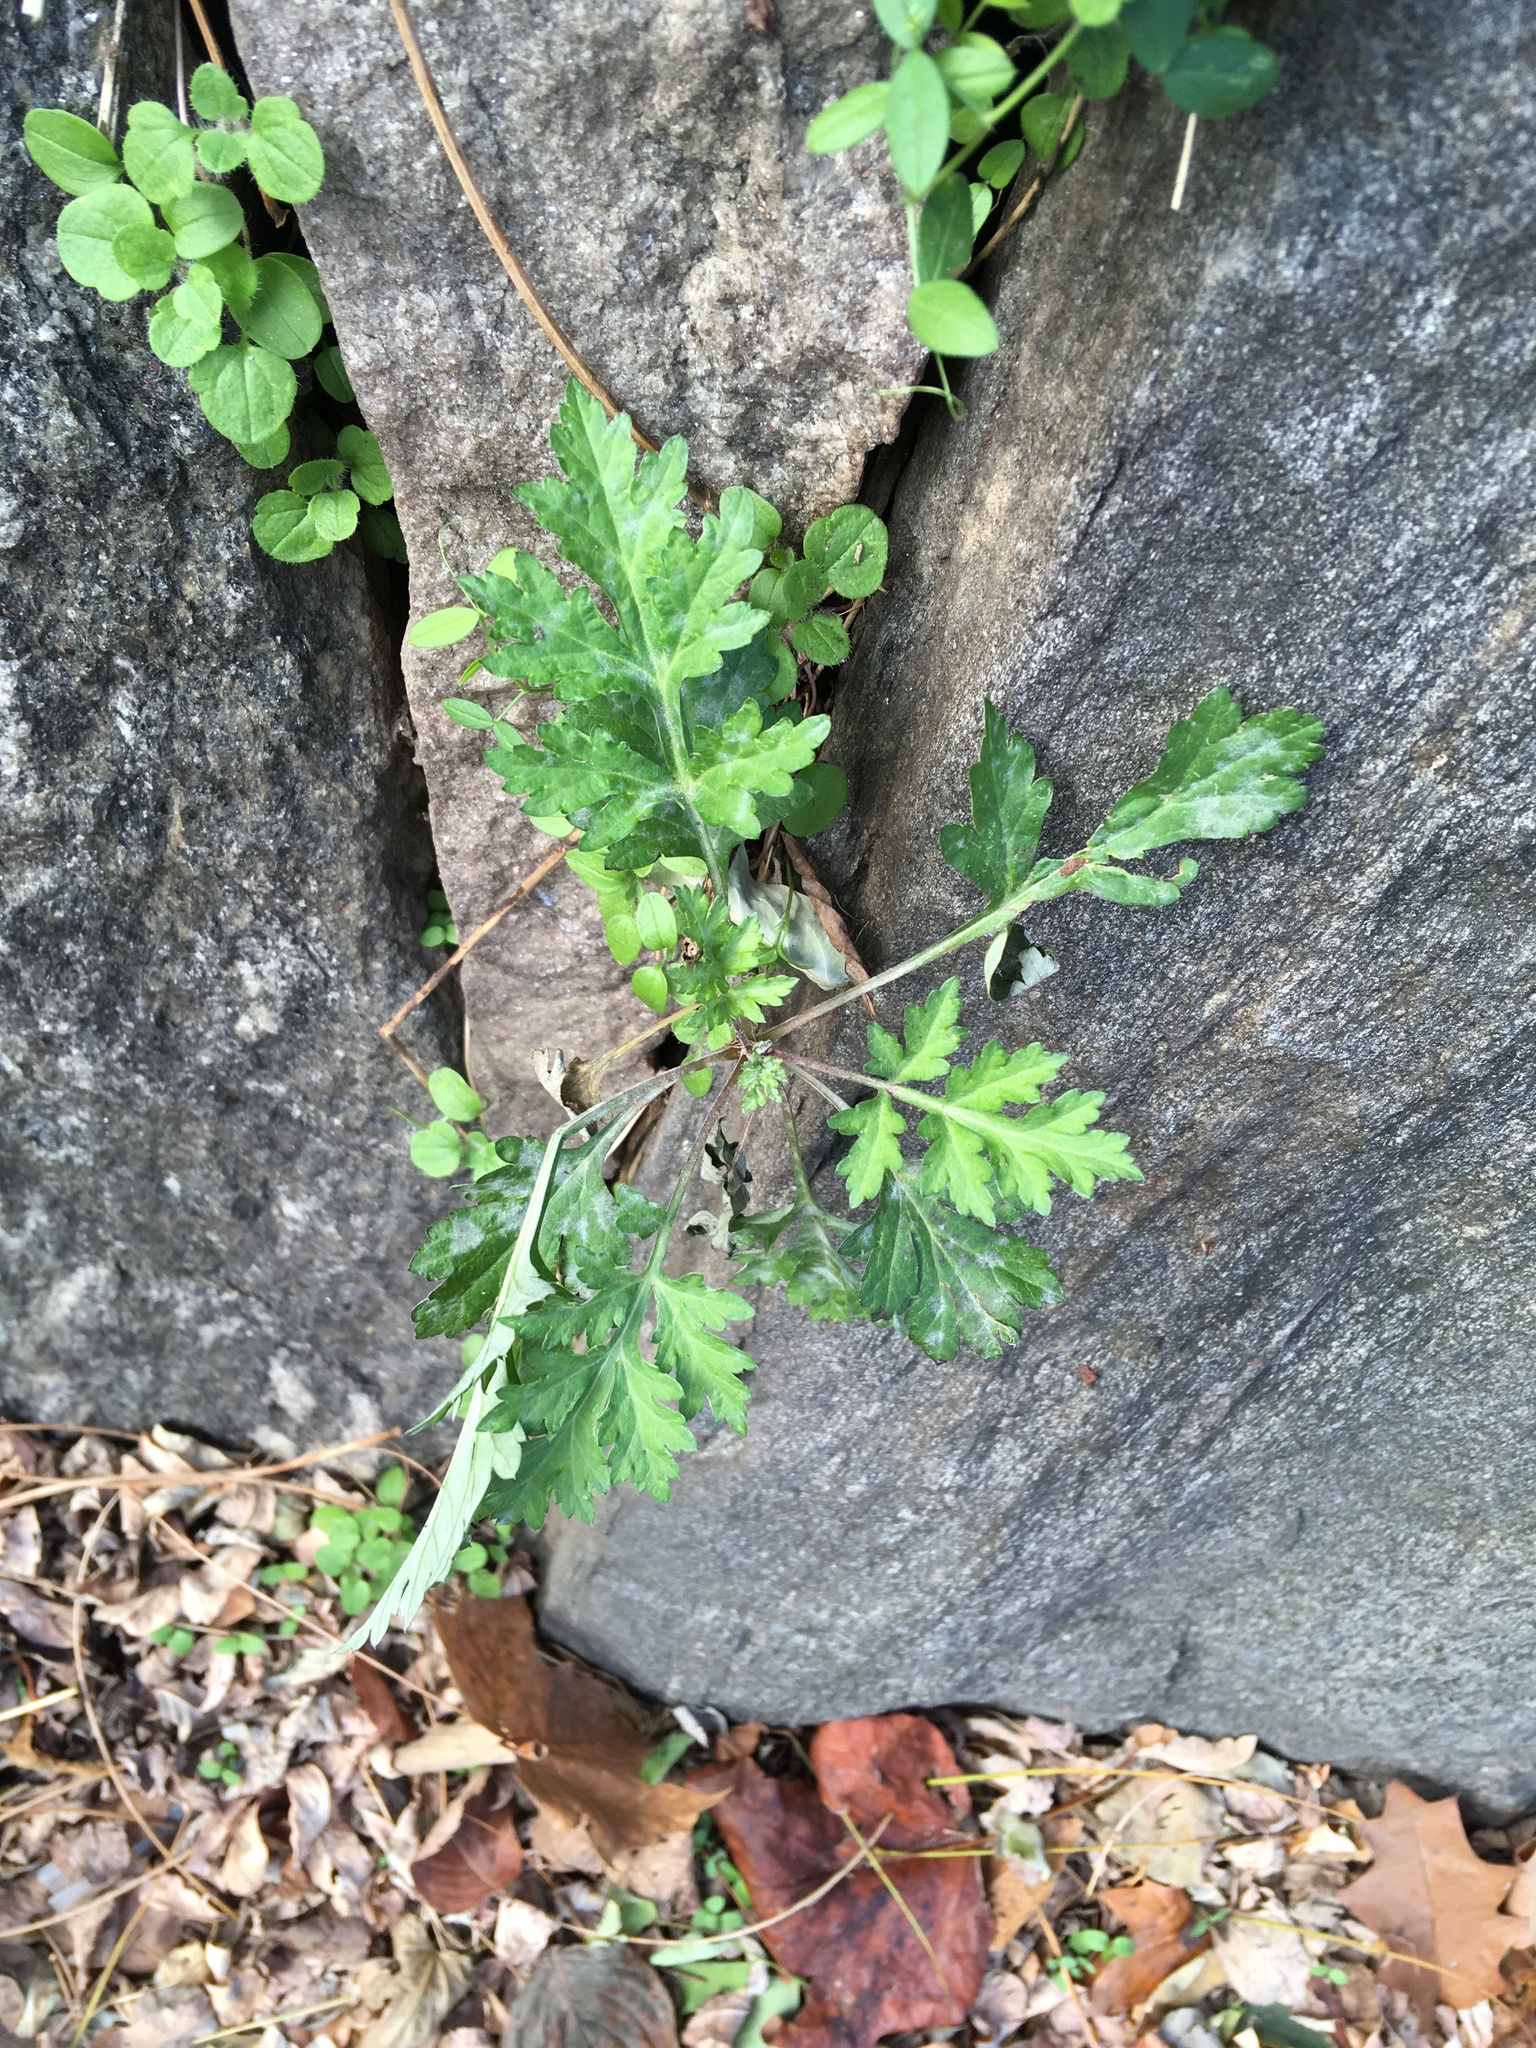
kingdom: Plantae
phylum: Tracheophyta
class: Magnoliopsida
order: Asterales
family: Asteraceae
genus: Artemisia
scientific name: Artemisia vulgaris
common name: Mugwort
